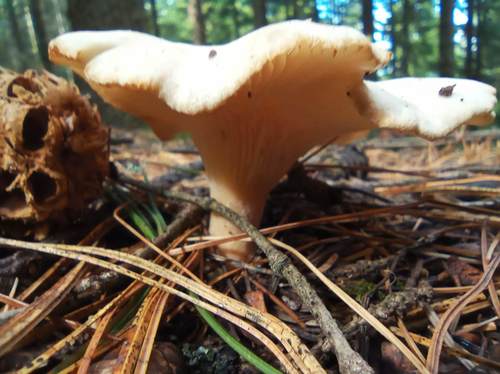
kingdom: Fungi
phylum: Basidiomycota
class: Agaricomycetes
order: Agaricales
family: Tricholomataceae
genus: Infundibulicybe
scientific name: Infundibulicybe gibba
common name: Common funnel
